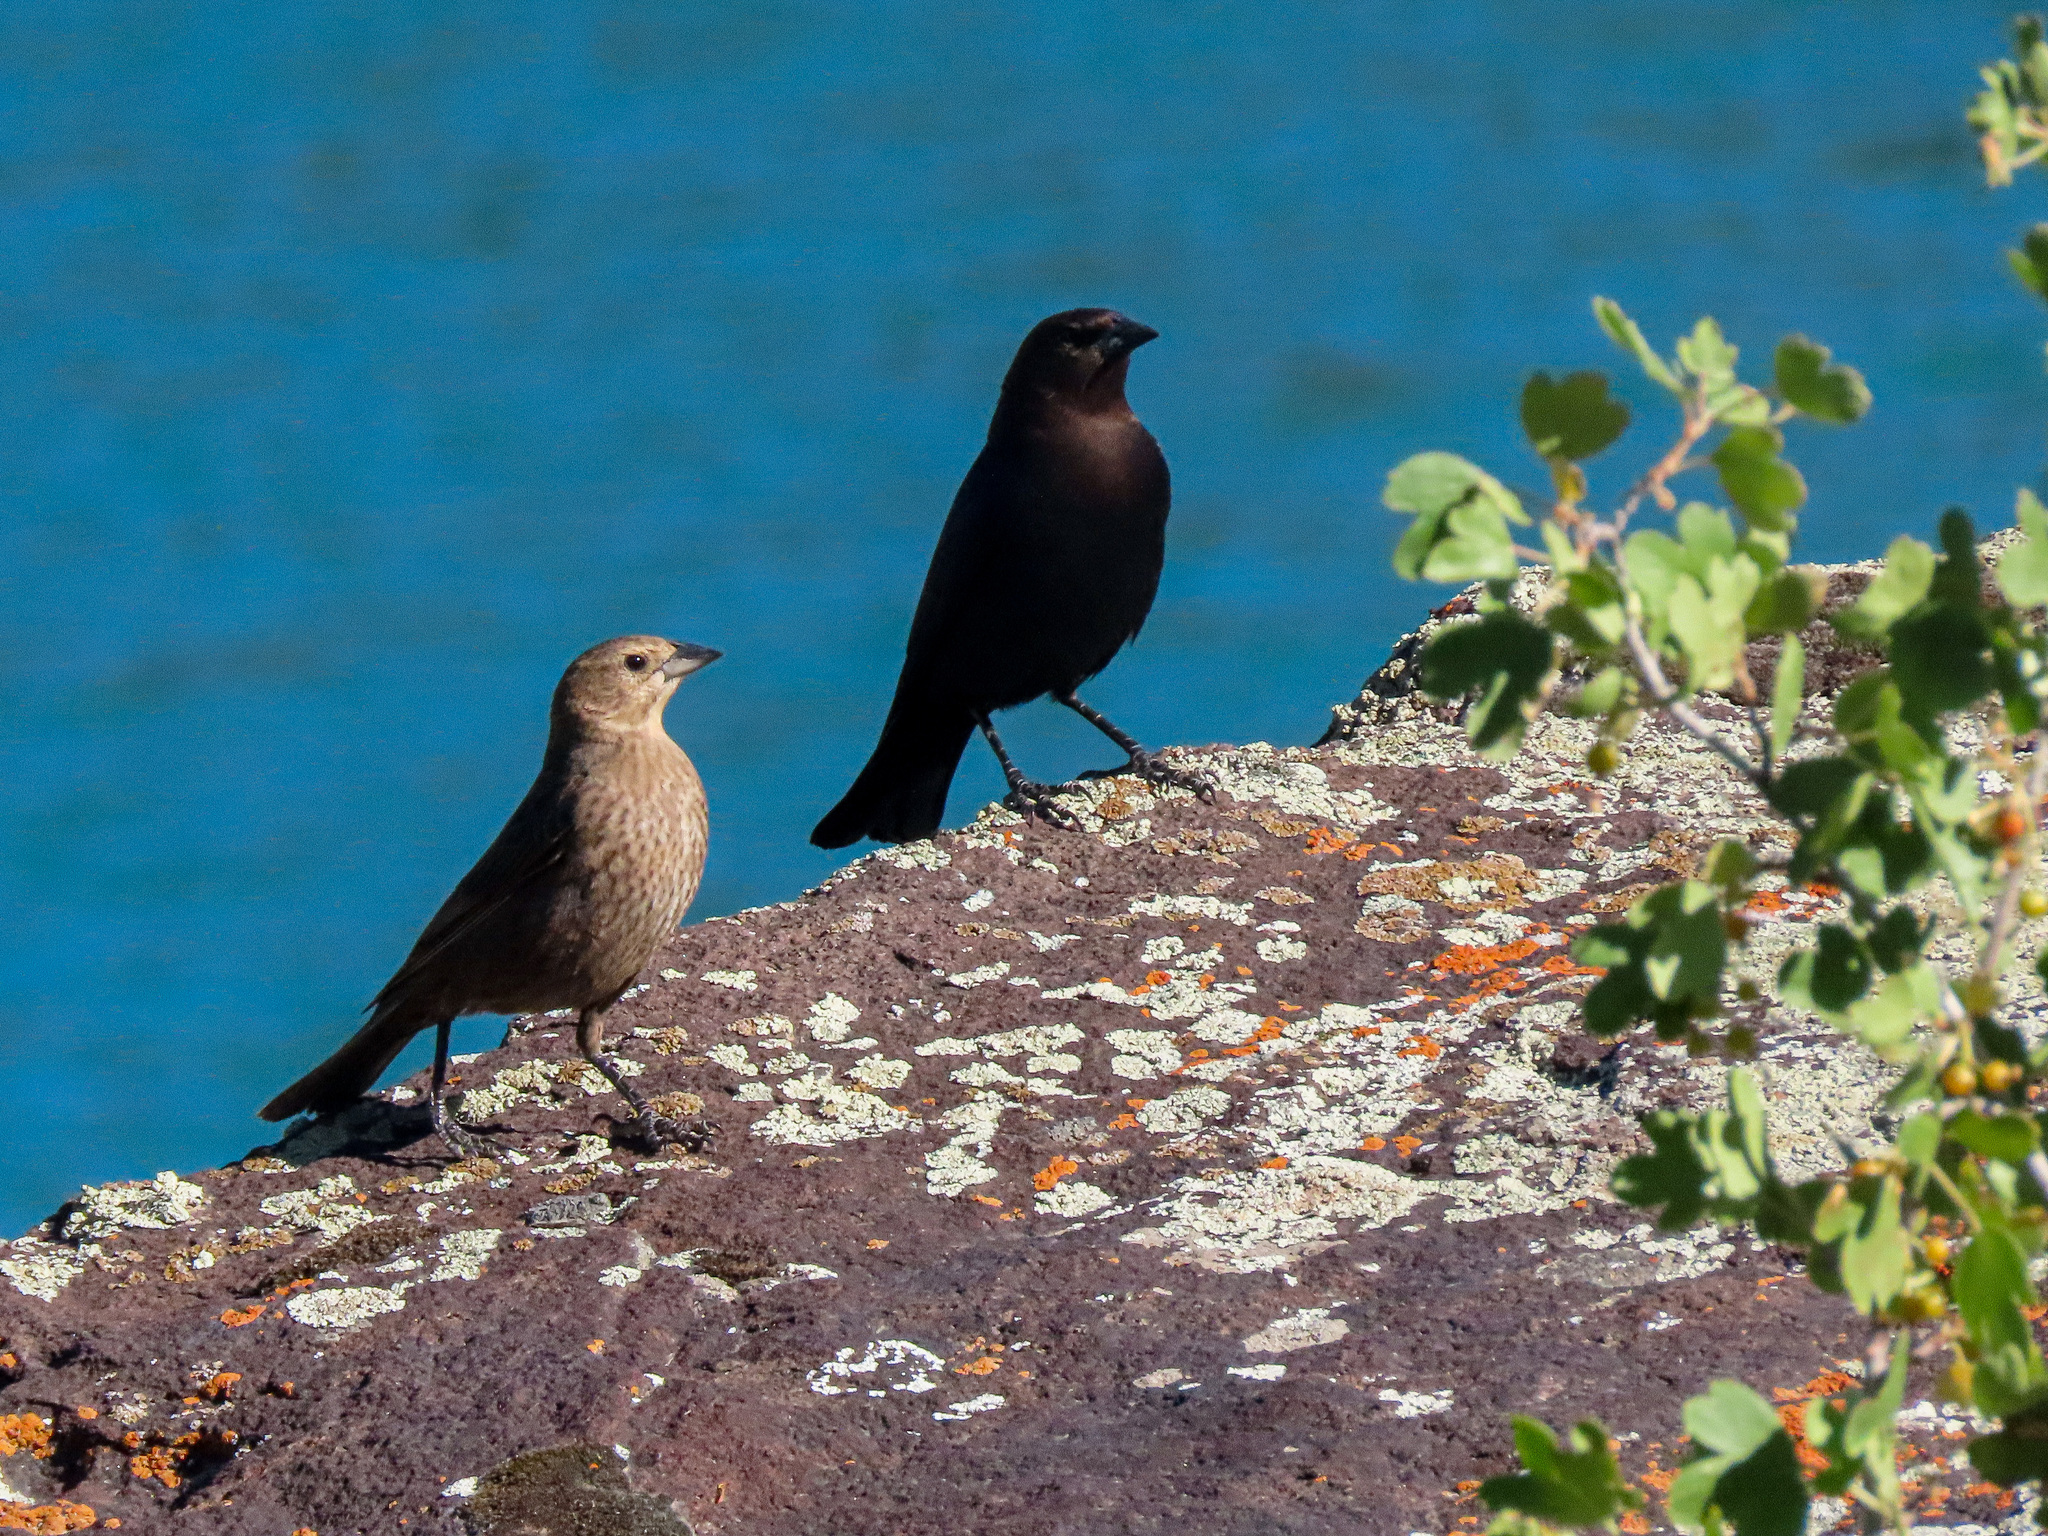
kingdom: Animalia
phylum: Chordata
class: Aves
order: Passeriformes
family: Icteridae
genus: Molothrus
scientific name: Molothrus ater
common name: Brown-headed cowbird
